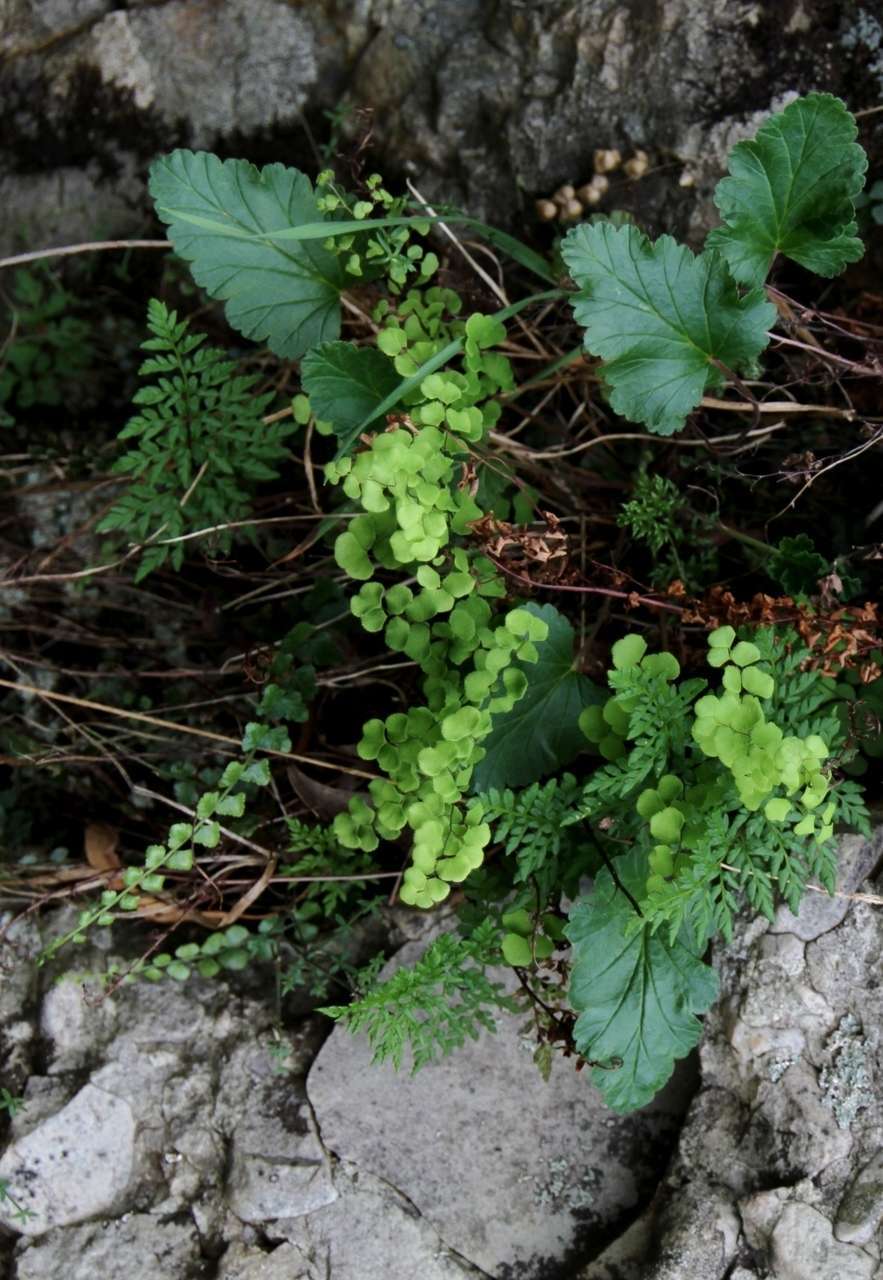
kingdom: Plantae
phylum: Tracheophyta
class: Polypodiopsida
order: Polypodiales
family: Pteridaceae
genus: Cheilanthes
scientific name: Cheilanthes austrotenuifolia
